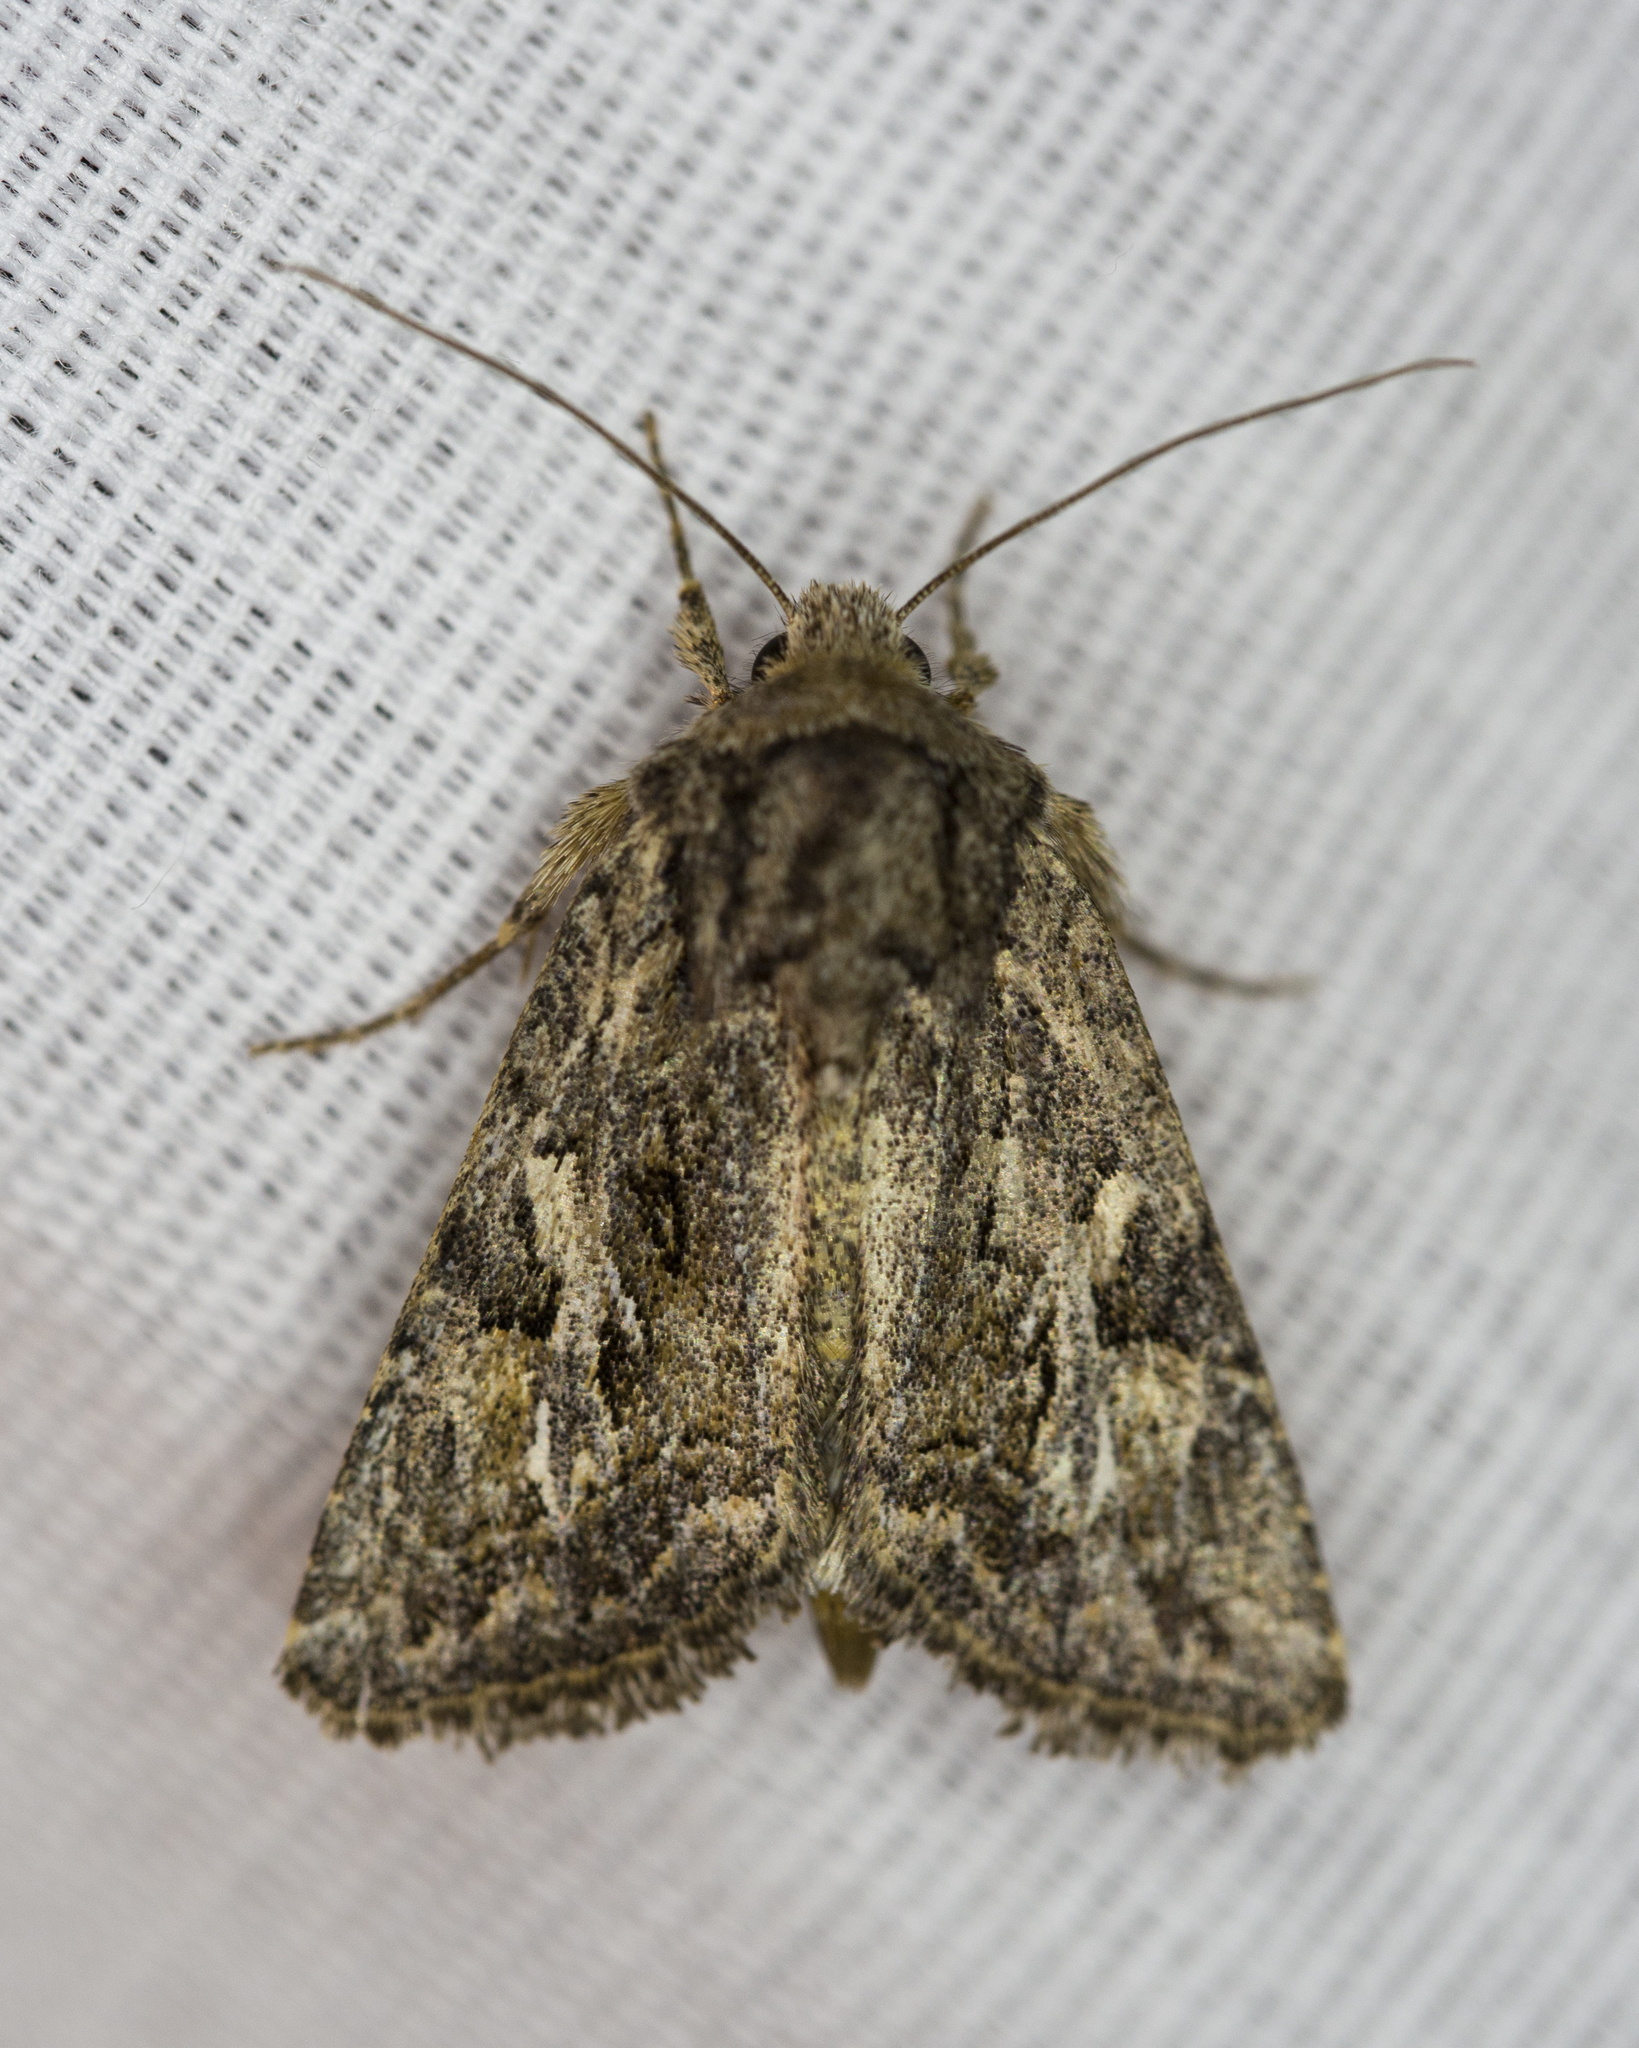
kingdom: Animalia
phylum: Arthropoda
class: Insecta
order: Lepidoptera
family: Noctuidae
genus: Ulolonche
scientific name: Ulolonche orbiculata
